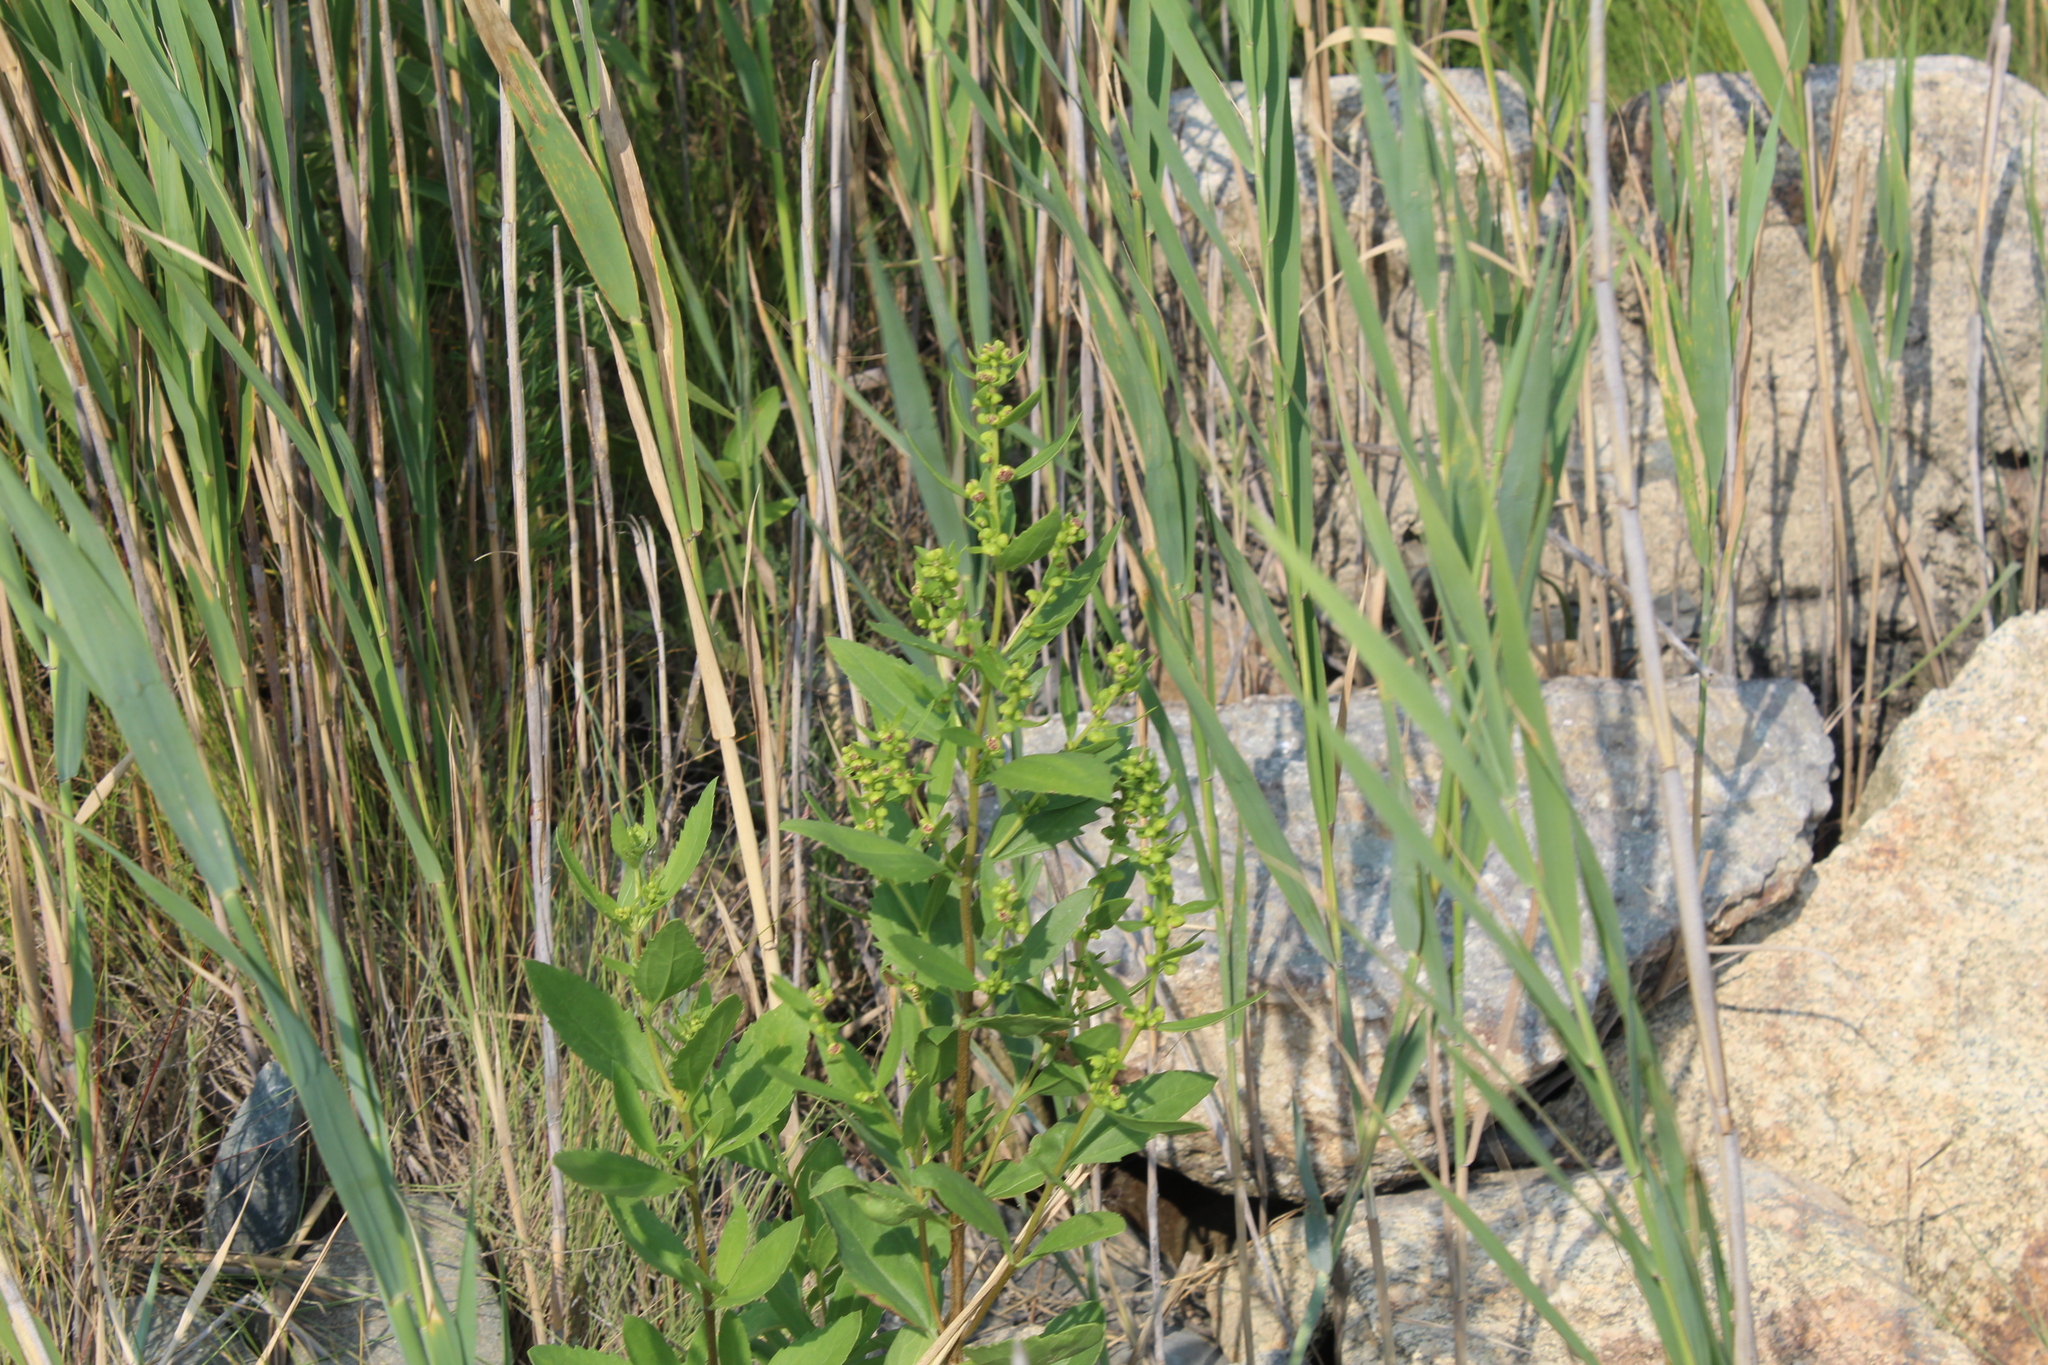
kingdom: Plantae
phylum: Tracheophyta
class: Magnoliopsida
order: Asterales
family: Asteraceae
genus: Iva
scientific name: Iva frutescens
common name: Big-leaved marsh-elder
